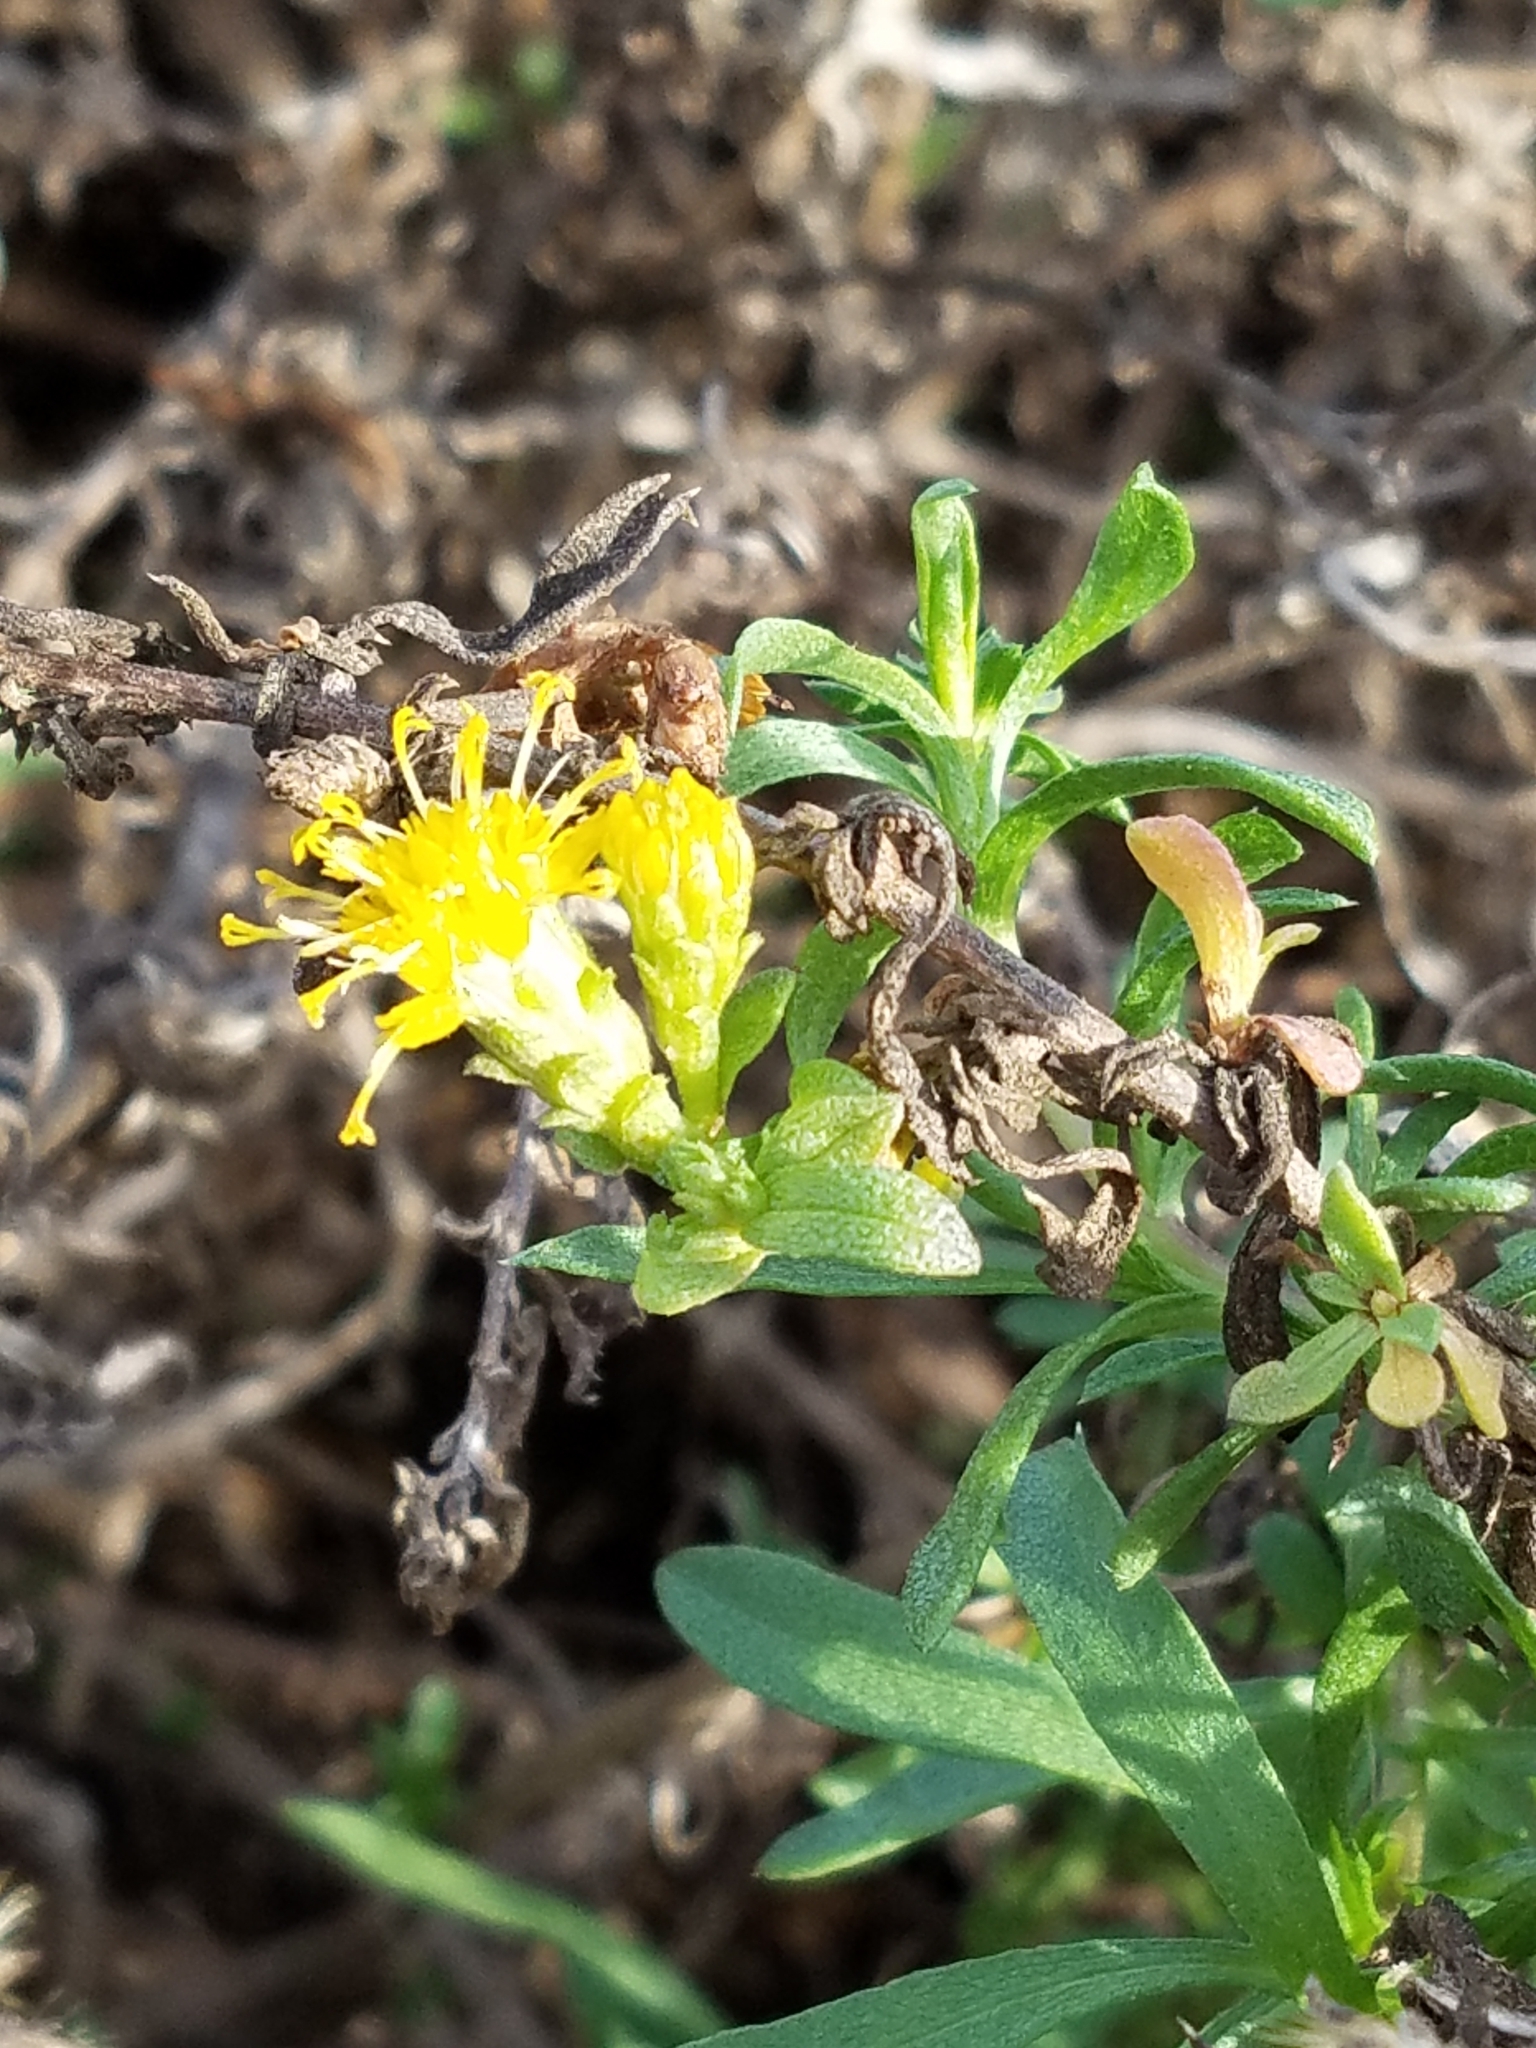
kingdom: Plantae
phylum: Tracheophyta
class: Magnoliopsida
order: Asterales
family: Asteraceae
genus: Isocoma
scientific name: Isocoma menziesii
